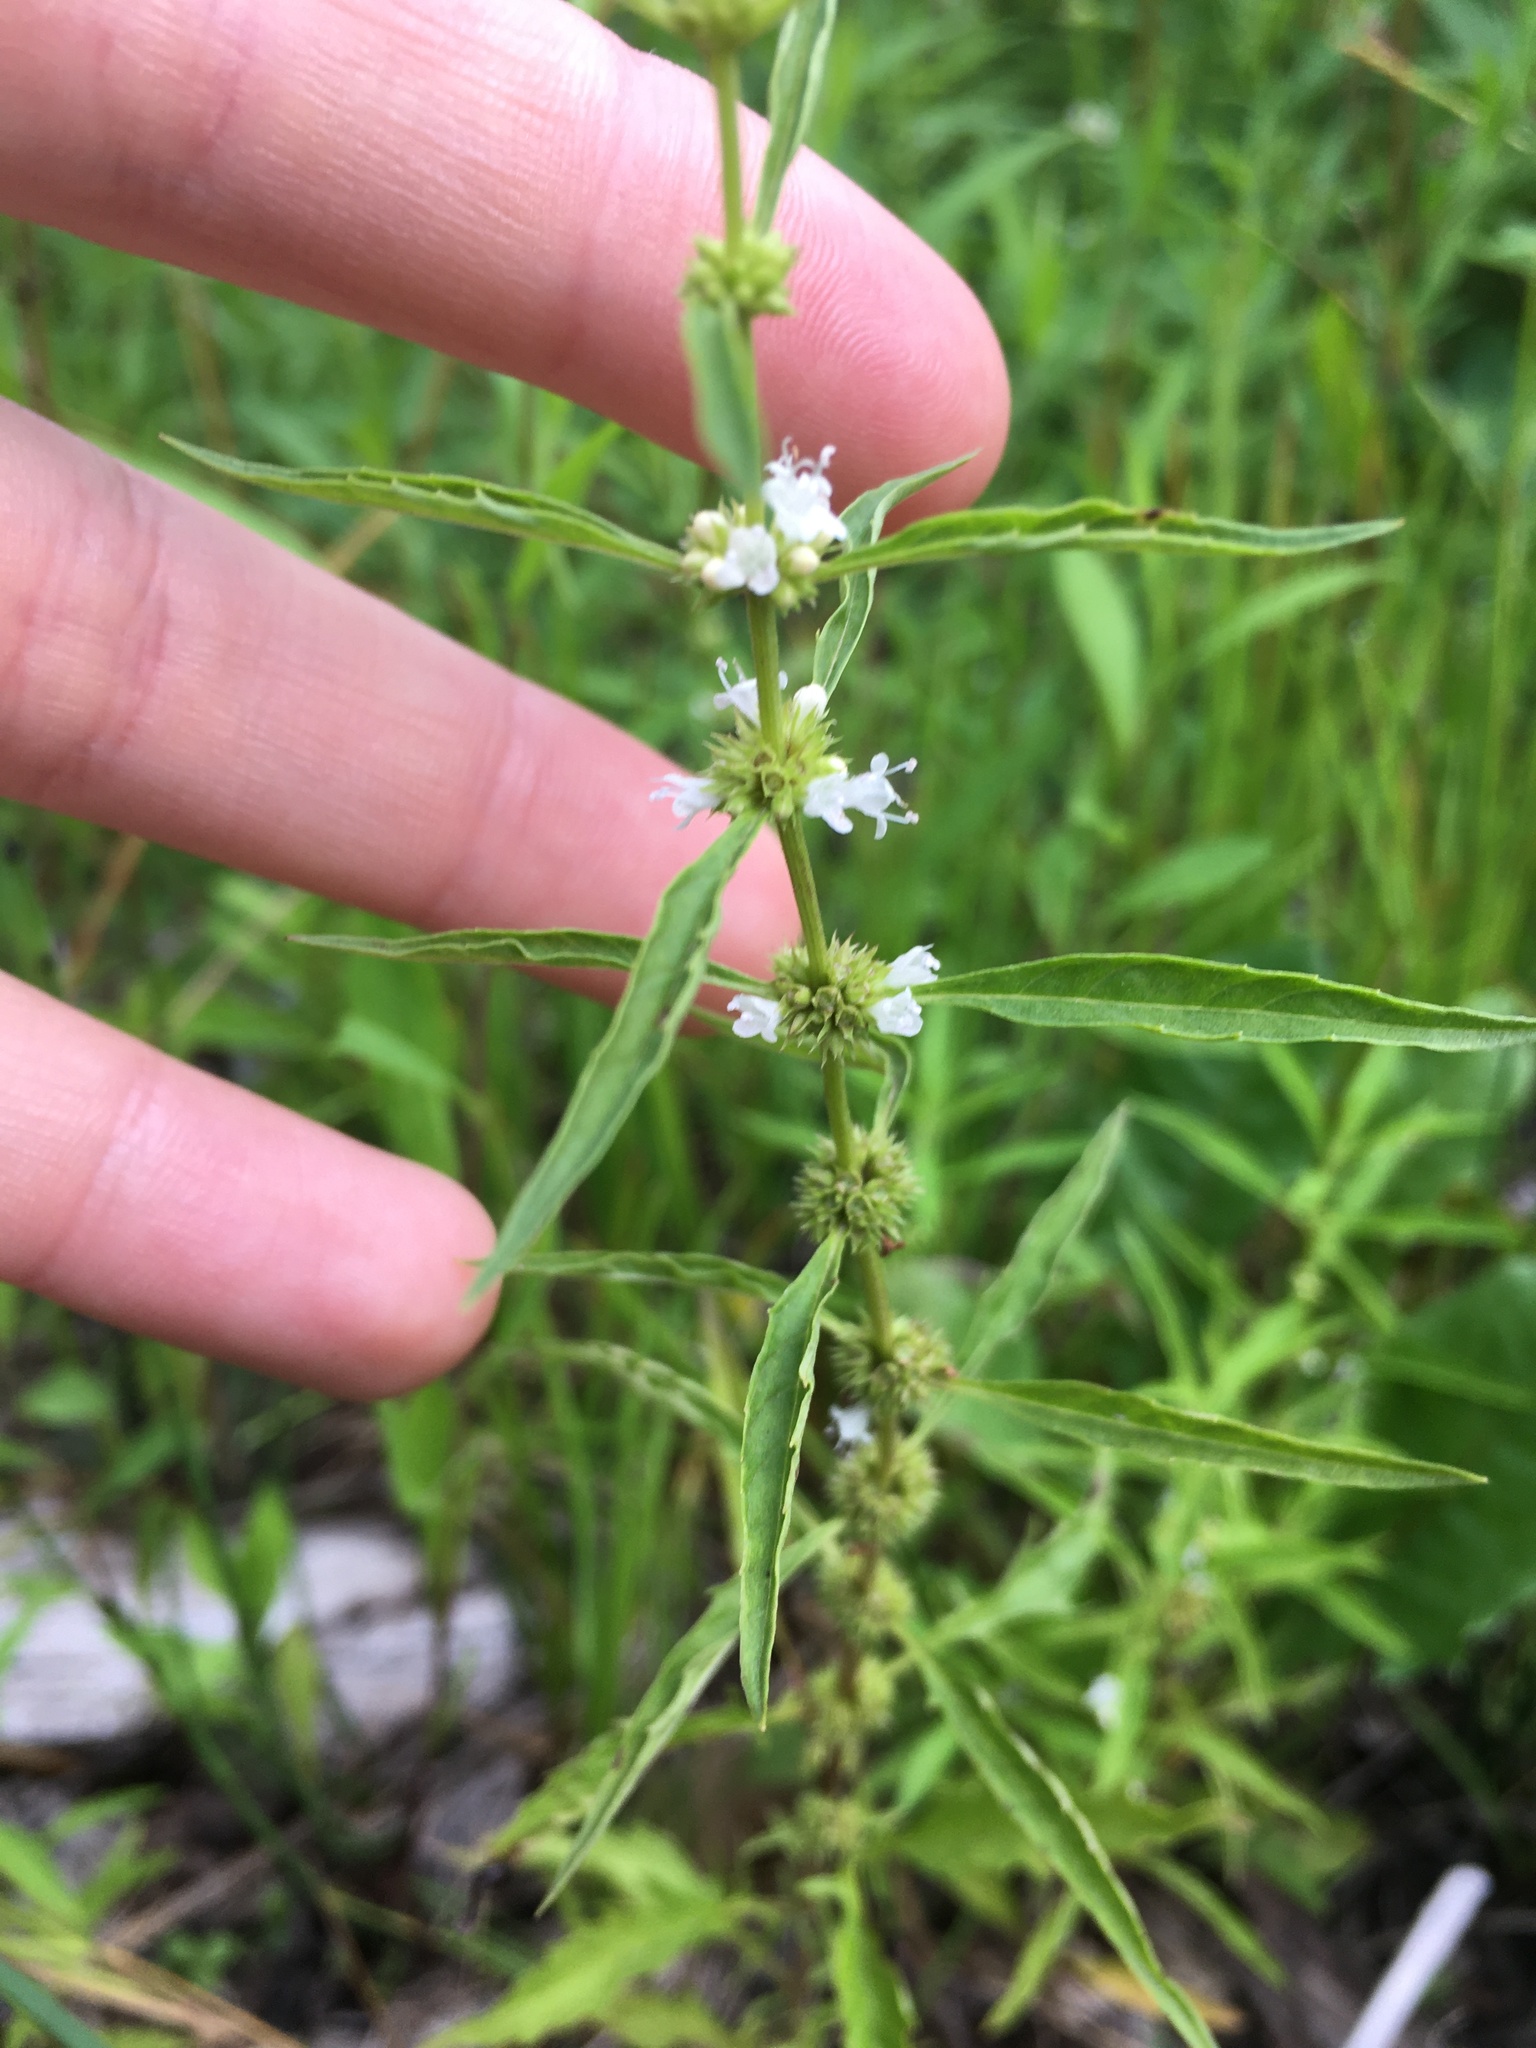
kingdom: Plantae
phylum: Tracheophyta
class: Magnoliopsida
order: Lamiales
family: Lamiaceae
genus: Lycopus
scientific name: Lycopus americanus
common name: American bugleweed
